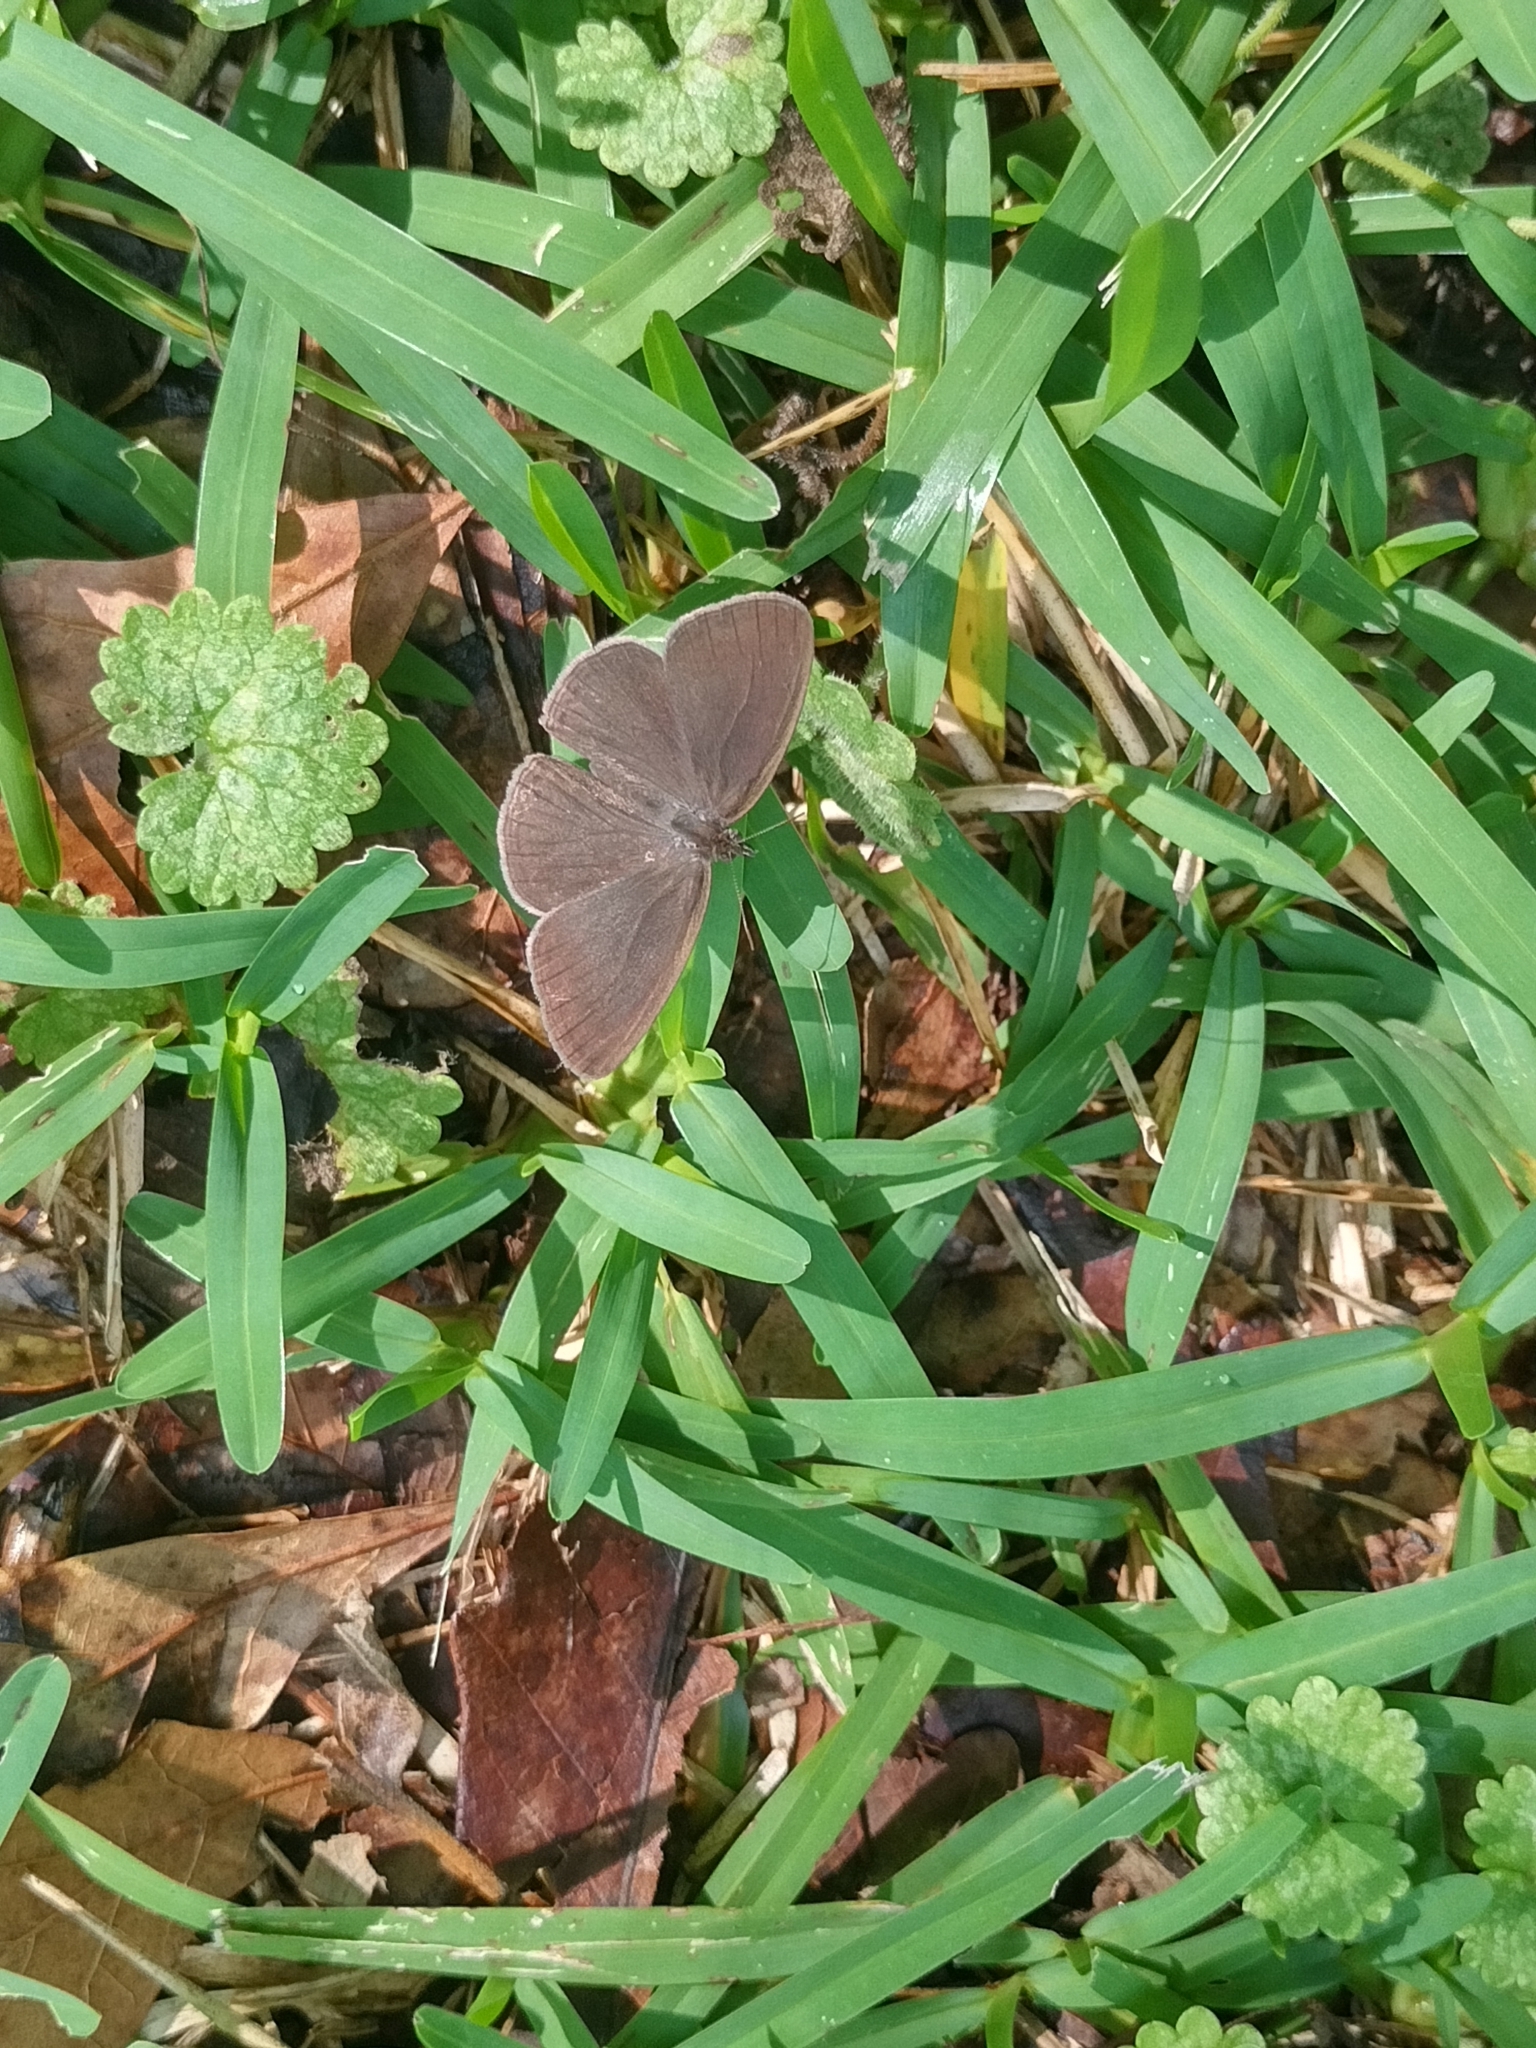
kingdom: Animalia
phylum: Arthropoda
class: Insecta
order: Lepidoptera
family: Nymphalidae
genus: Hermeuptychia
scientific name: Hermeuptychia intricata
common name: Intricate satyr
